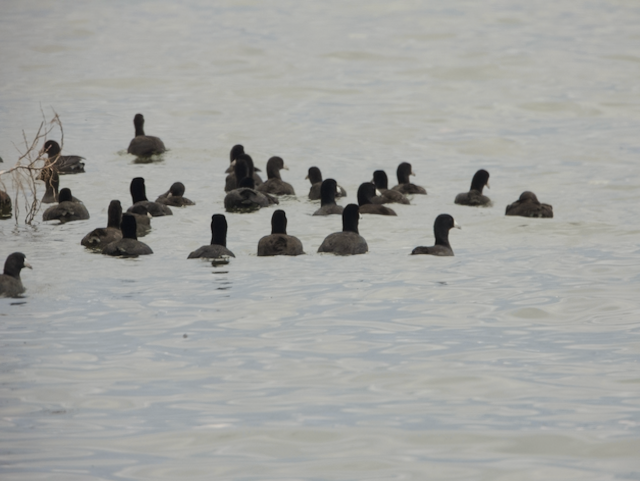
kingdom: Animalia
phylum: Chordata
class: Aves
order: Gruiformes
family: Rallidae
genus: Fulica
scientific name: Fulica americana
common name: American coot
